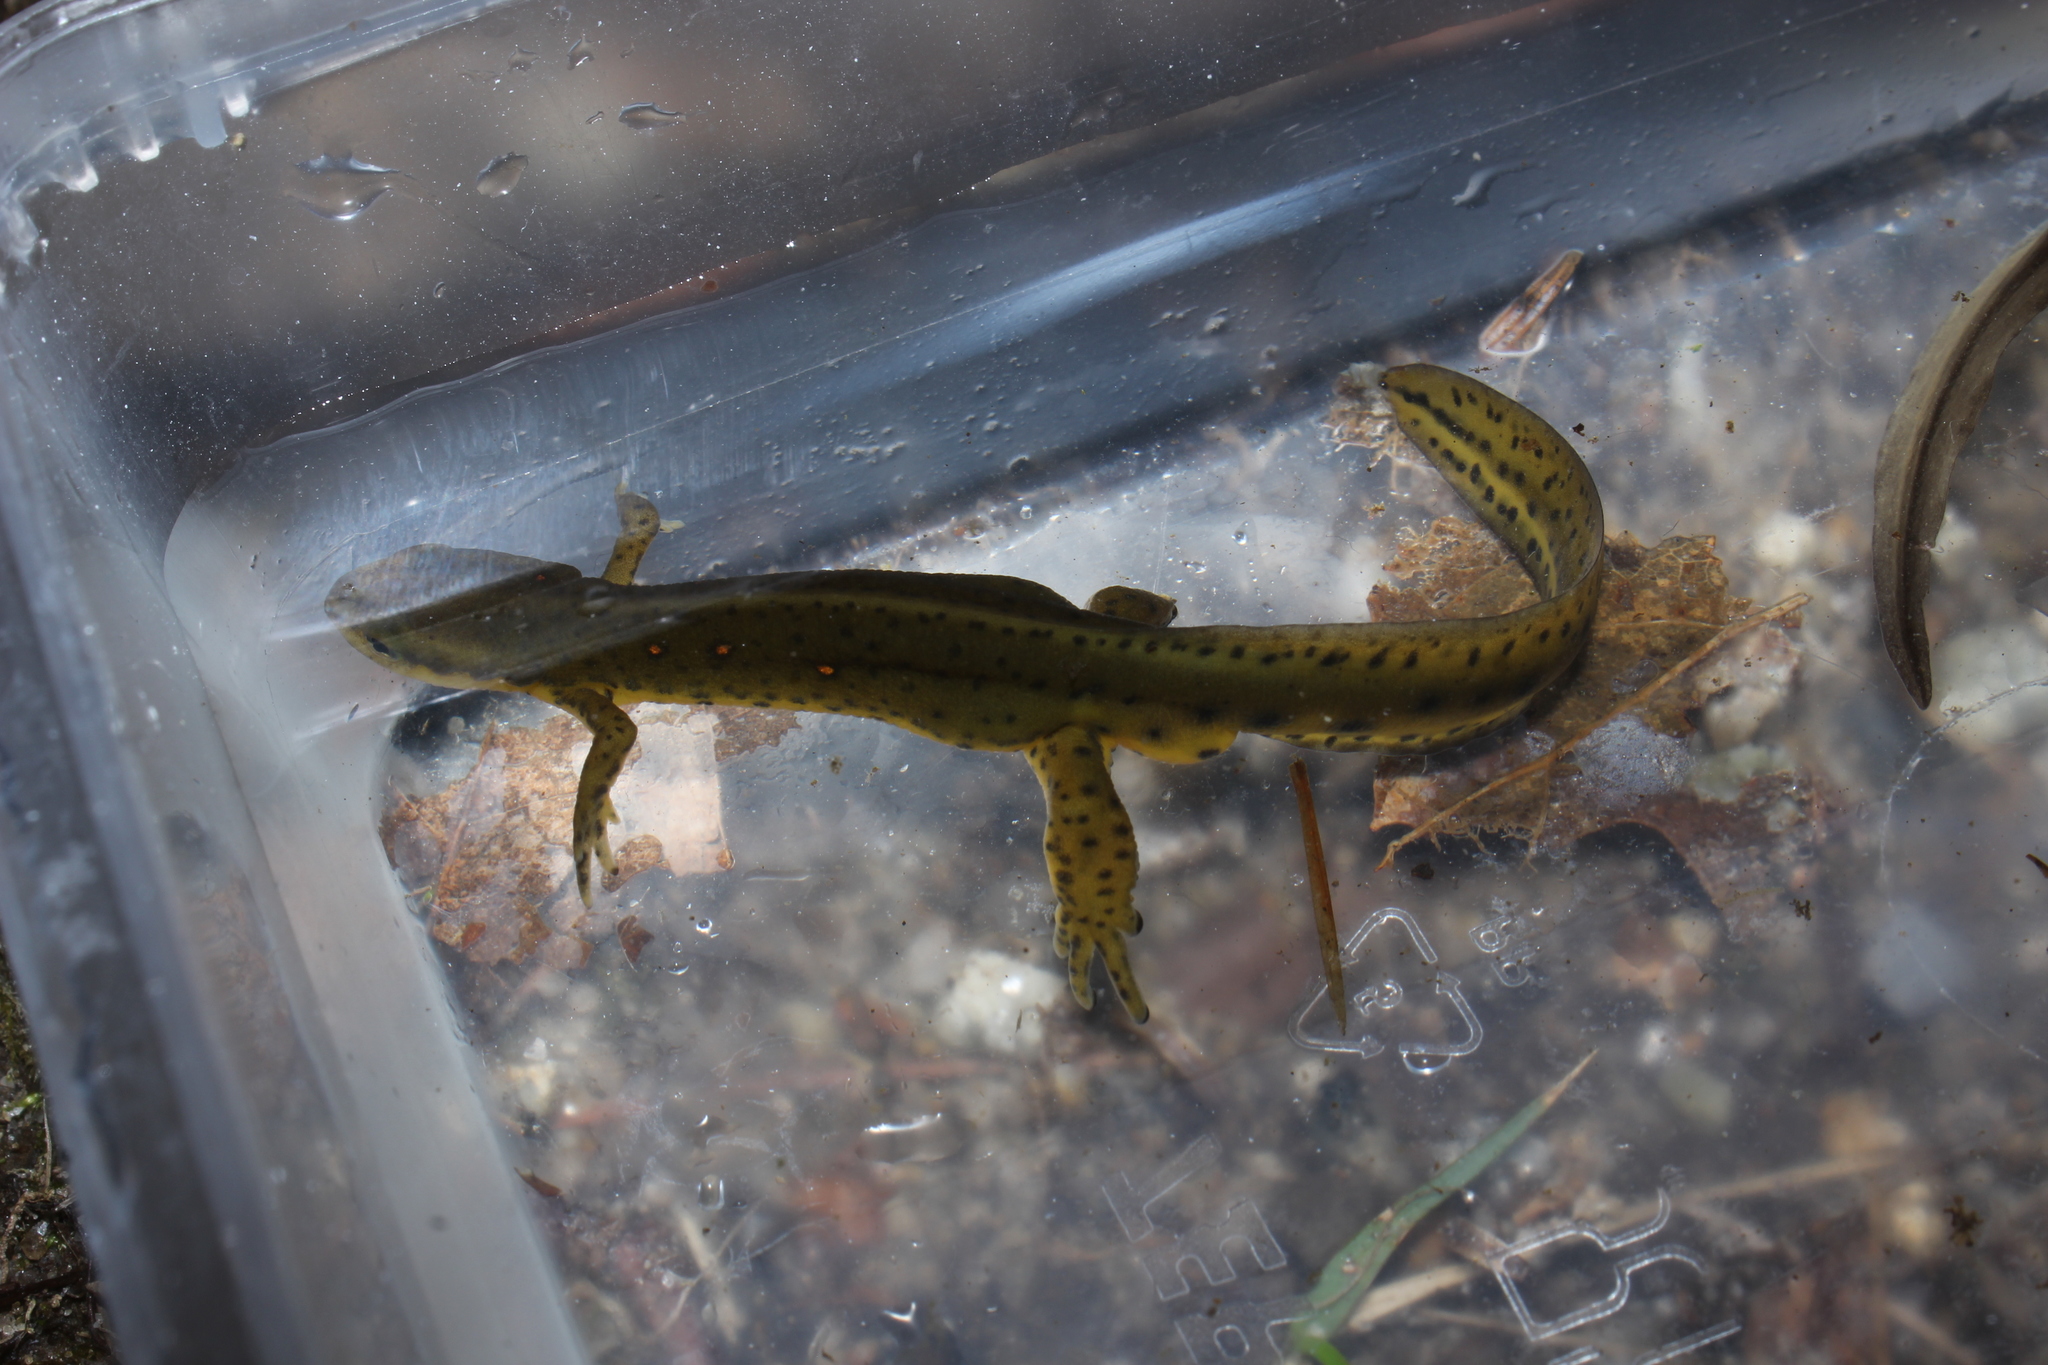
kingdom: Animalia
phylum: Chordata
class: Amphibia
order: Caudata
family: Salamandridae
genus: Notophthalmus
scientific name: Notophthalmus viridescens
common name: Eastern newt
